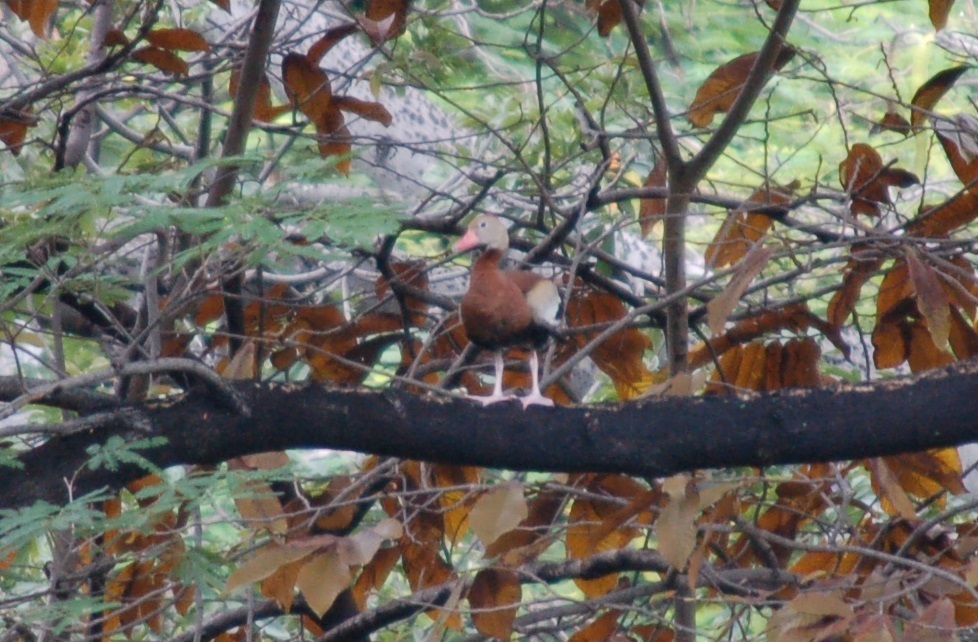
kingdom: Animalia
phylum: Chordata
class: Aves
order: Anseriformes
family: Anatidae
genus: Dendrocygna
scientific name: Dendrocygna autumnalis
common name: Black-bellied whistling duck
